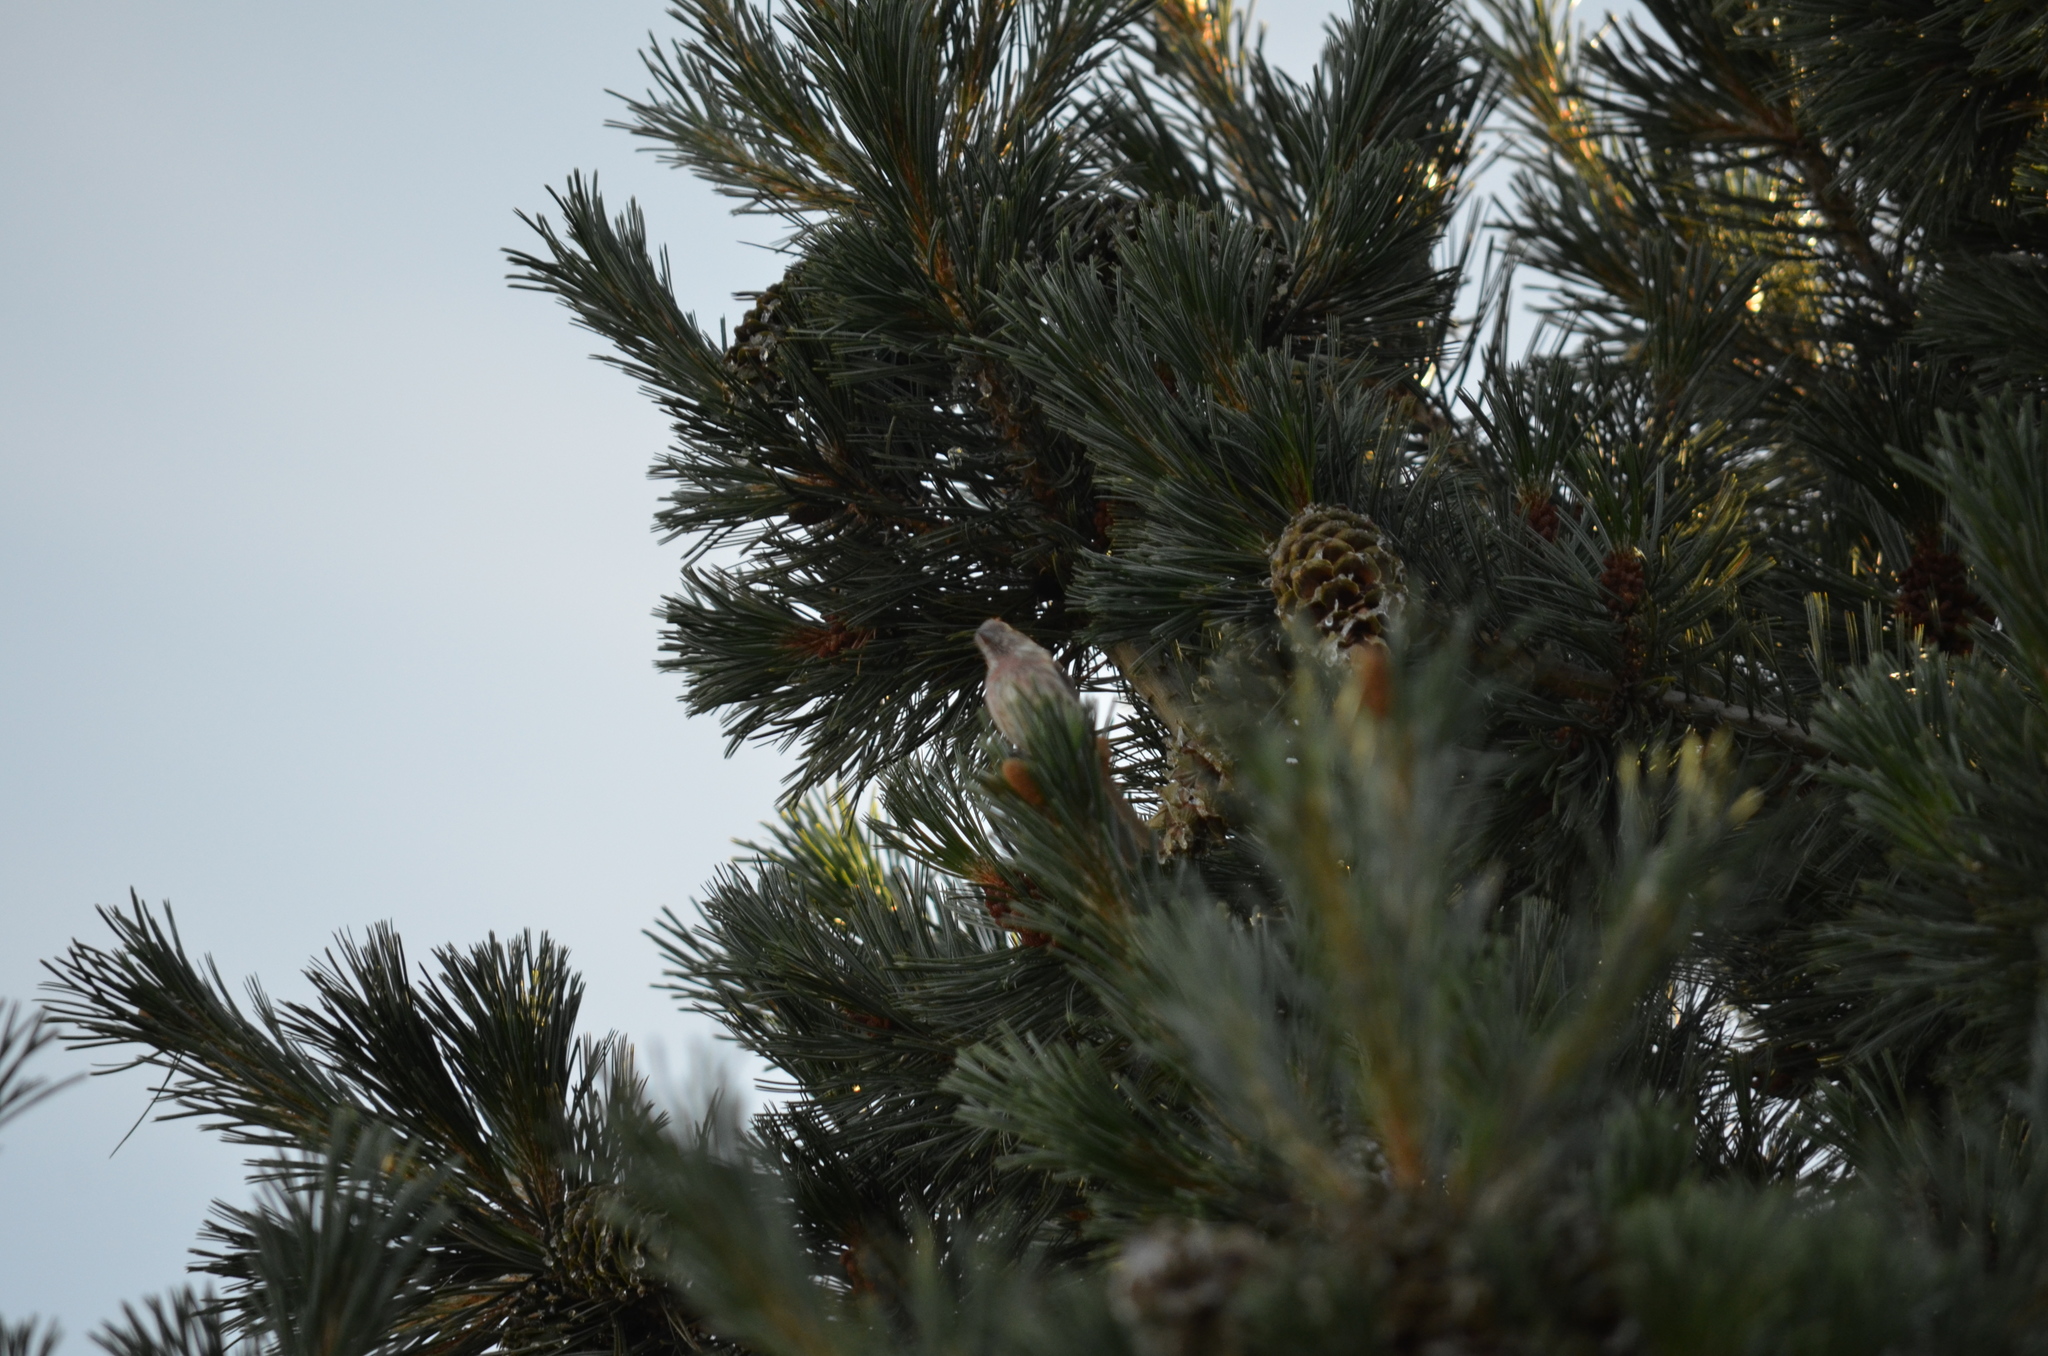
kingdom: Animalia
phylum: Chordata
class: Aves
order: Passeriformes
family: Fringillidae
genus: Haemorhous
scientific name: Haemorhous mexicanus
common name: House finch
